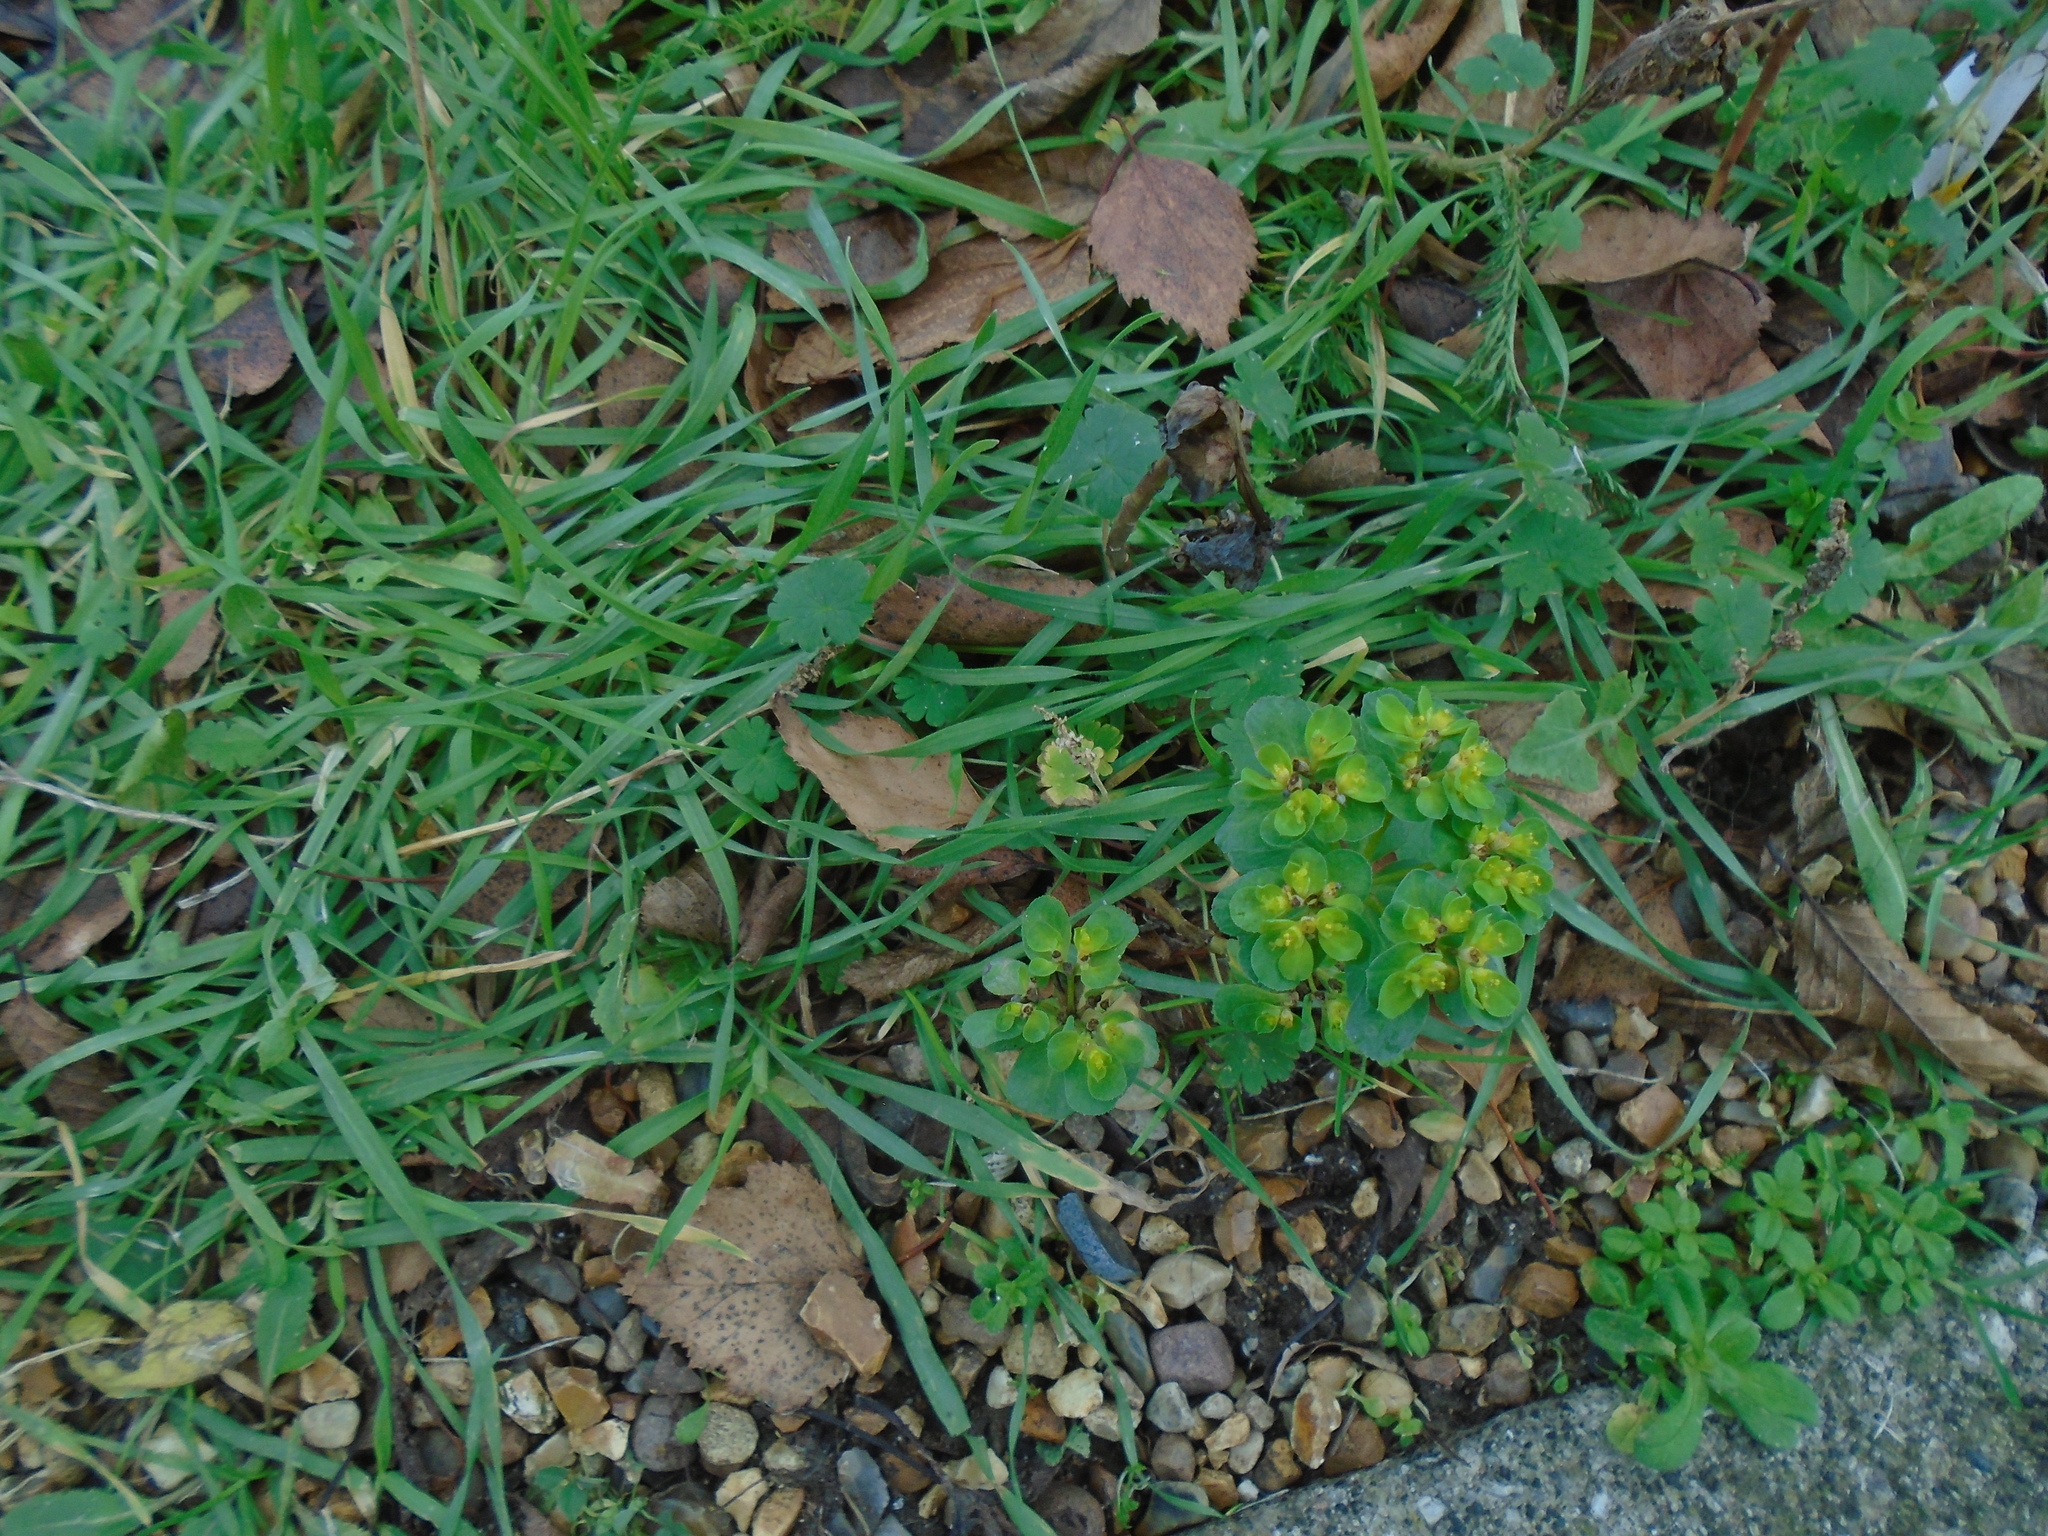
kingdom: Plantae
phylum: Tracheophyta
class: Magnoliopsida
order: Malpighiales
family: Euphorbiaceae
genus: Euphorbia
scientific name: Euphorbia helioscopia
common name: Sun spurge
